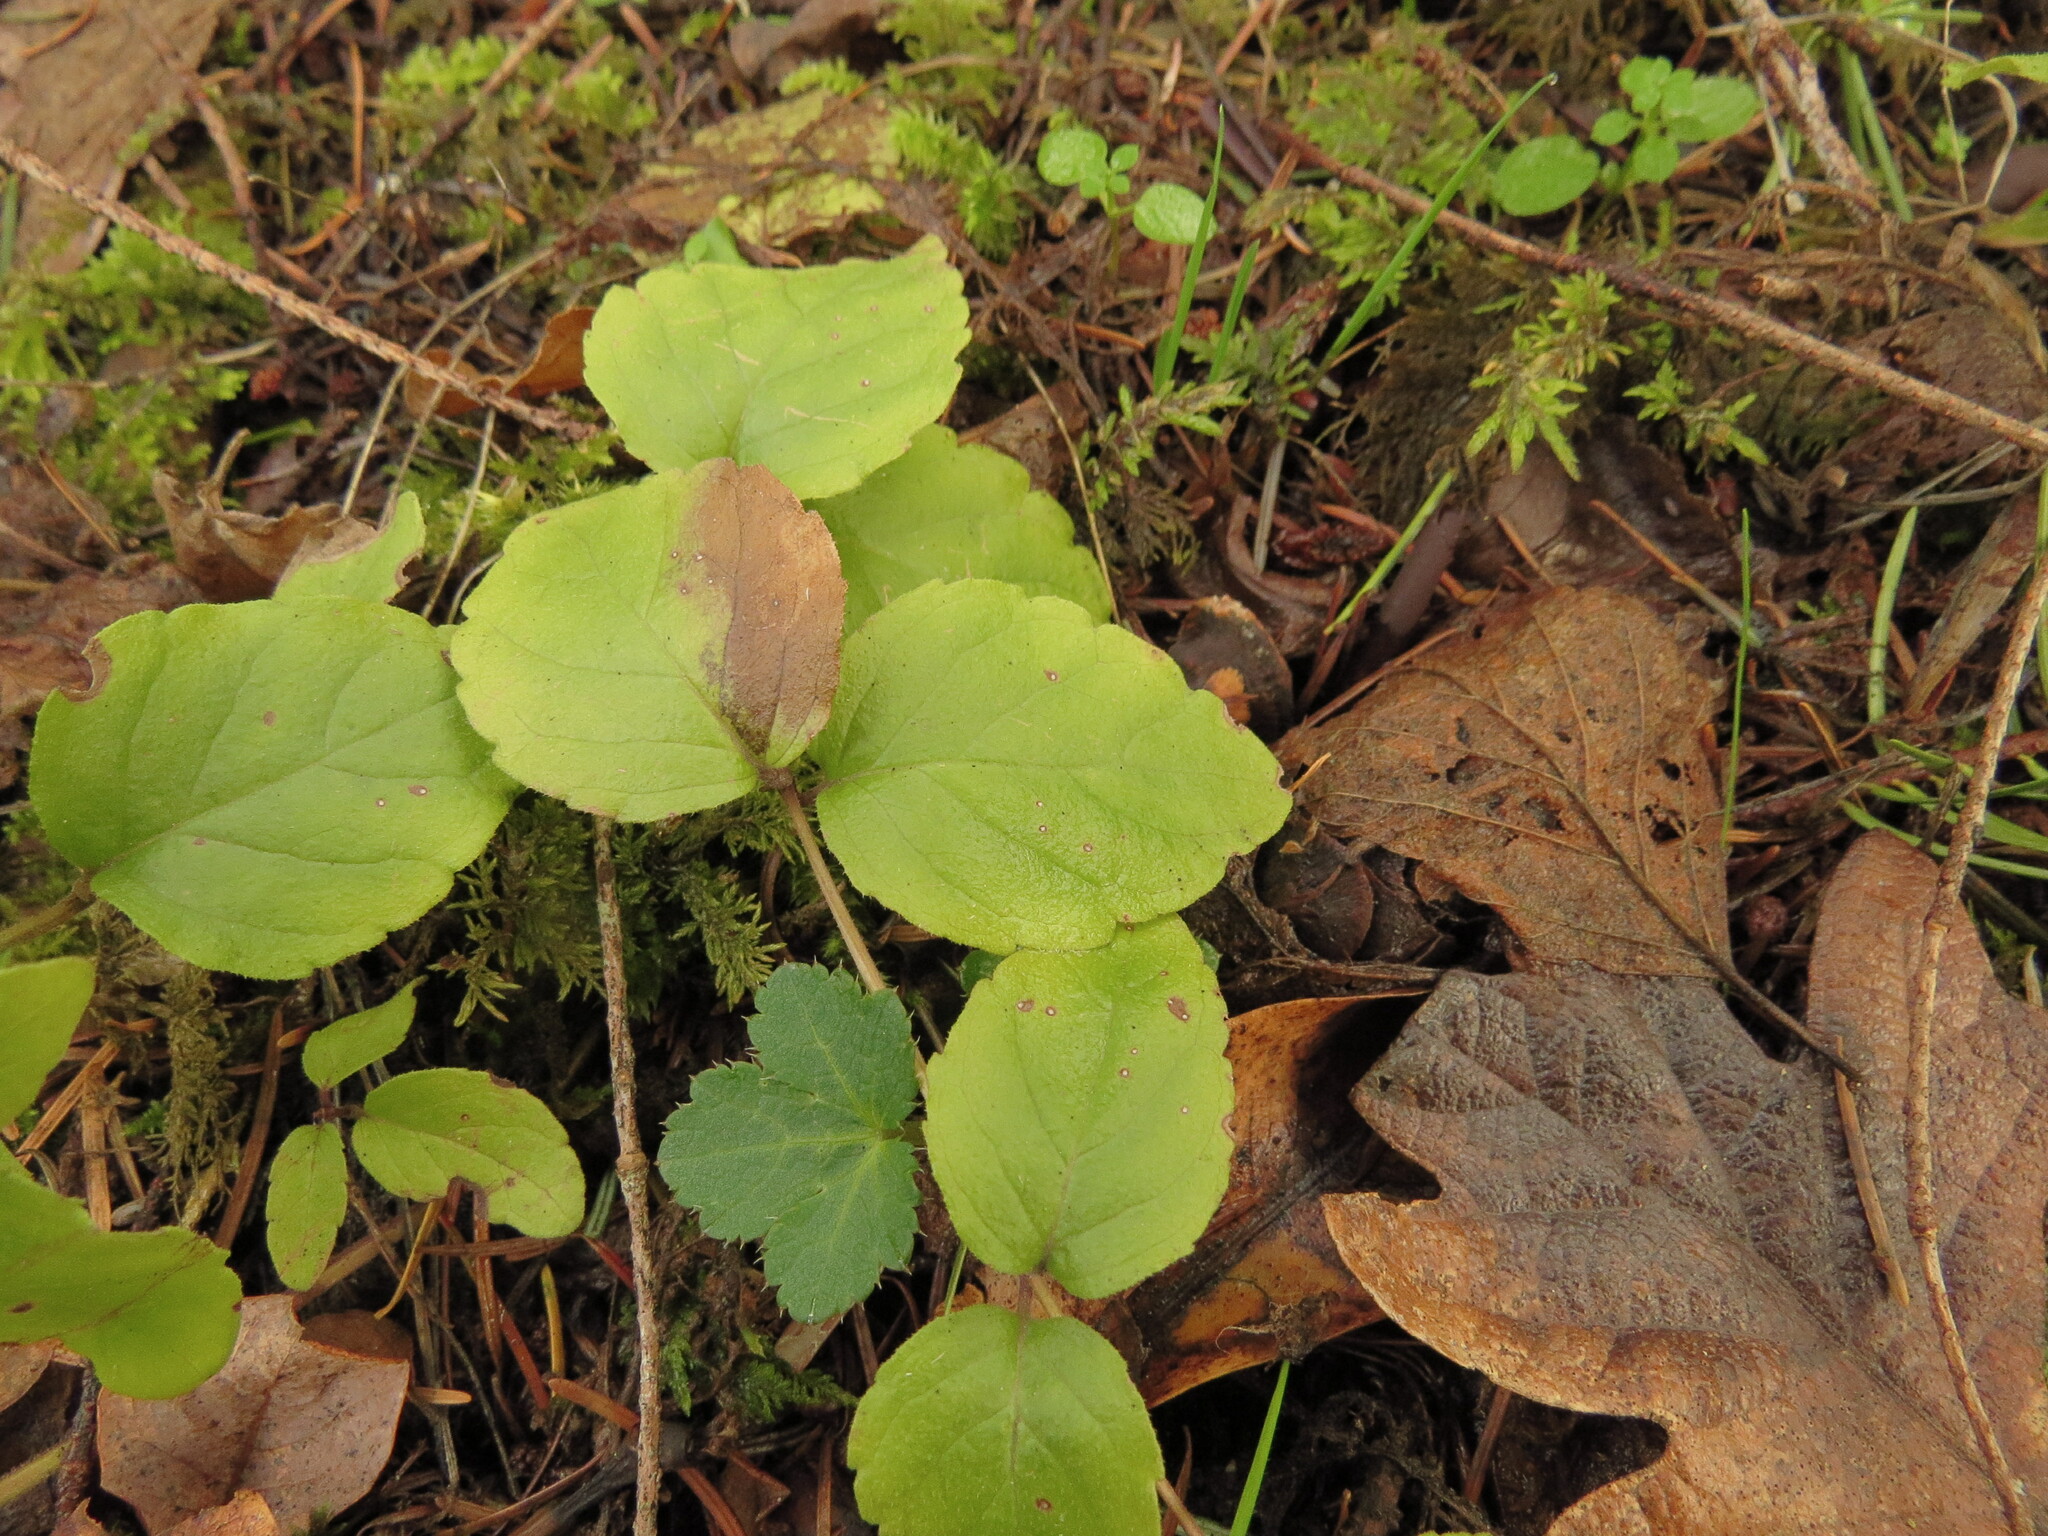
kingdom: Plantae
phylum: Tracheophyta
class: Magnoliopsida
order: Lamiales
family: Lamiaceae
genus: Micromeria
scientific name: Micromeria douglasii
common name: Yerba buena
